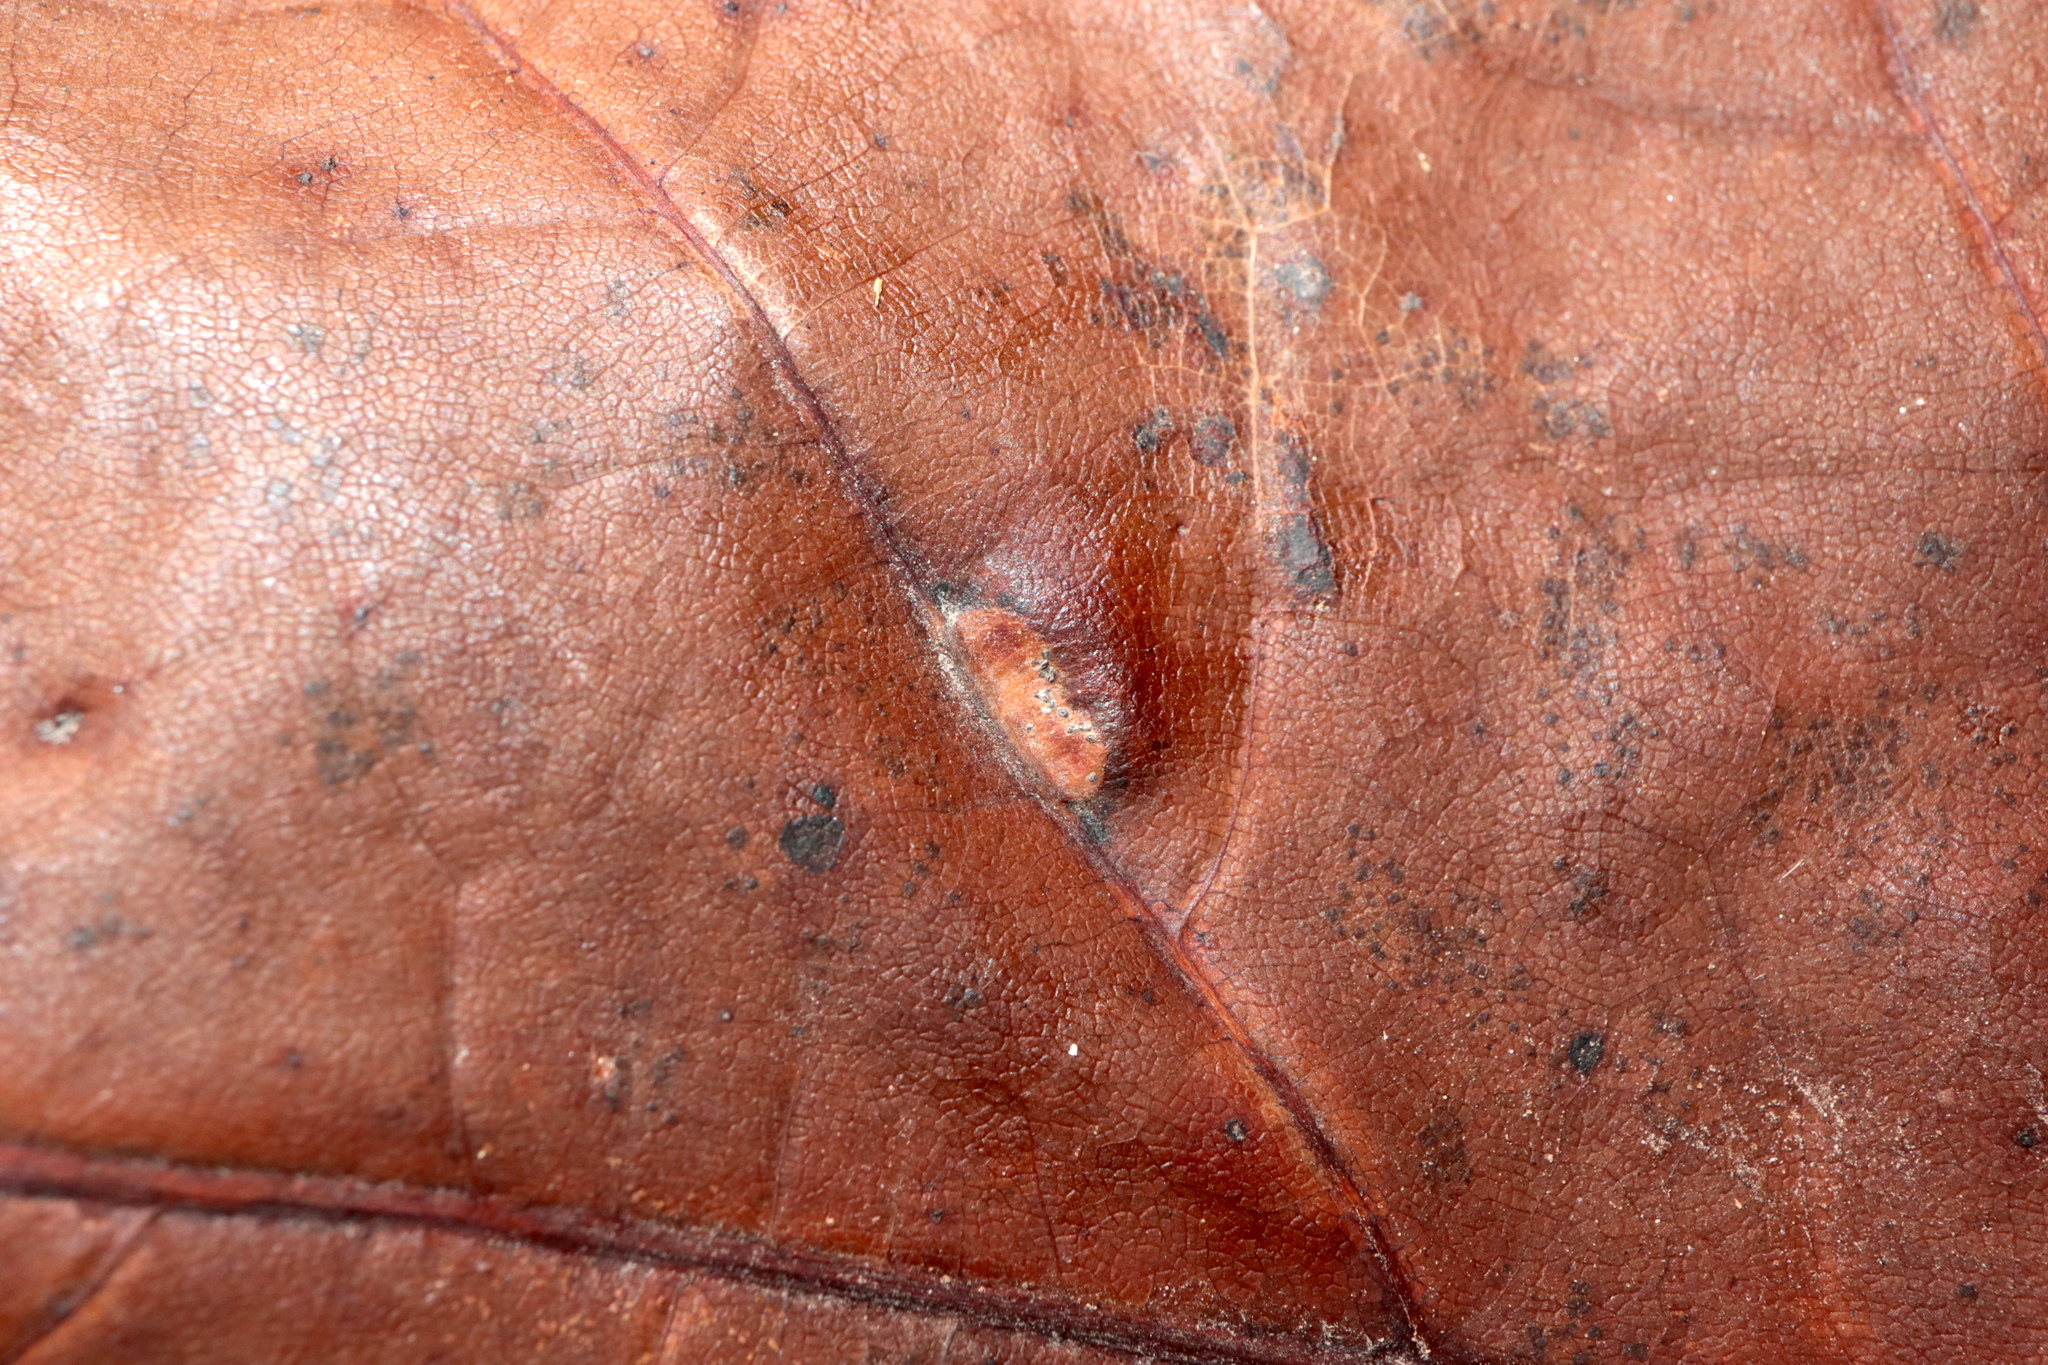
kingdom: Animalia
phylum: Arthropoda
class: Insecta
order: Diptera
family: Cecidomyiidae
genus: Polystepha
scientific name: Polystepha pilulae
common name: Oak leaf gall midge
